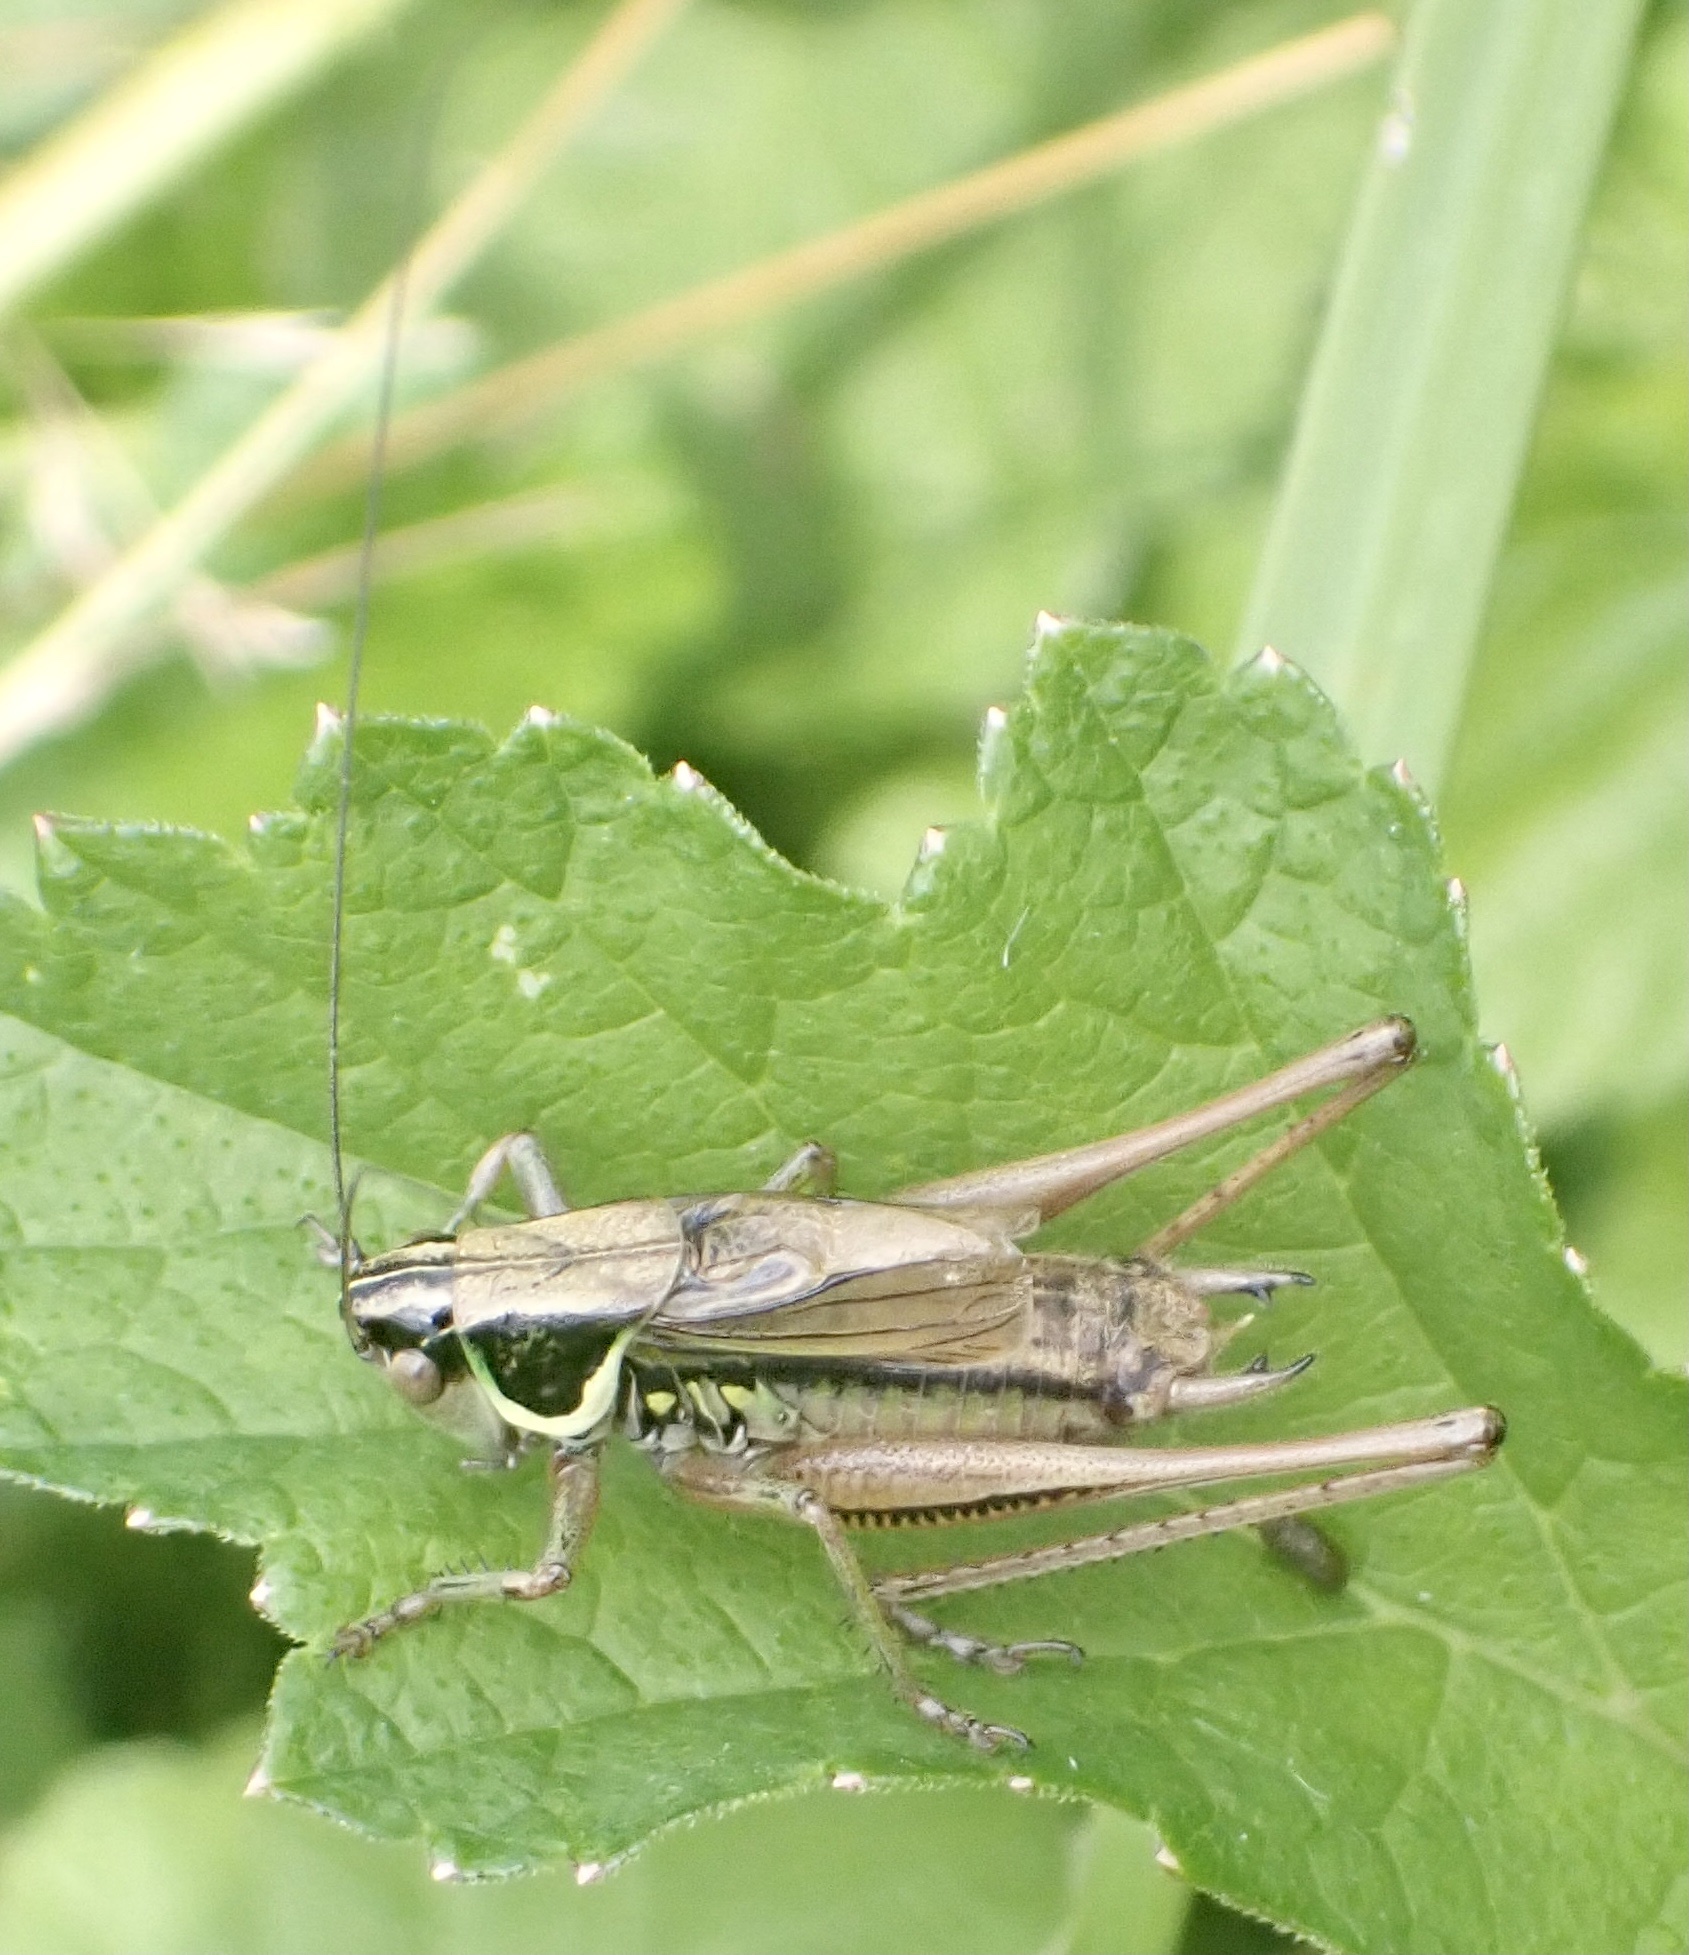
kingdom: Animalia
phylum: Arthropoda
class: Insecta
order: Orthoptera
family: Tettigoniidae
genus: Roeseliana
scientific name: Roeseliana roeselii
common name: Roesel's bush cricket
